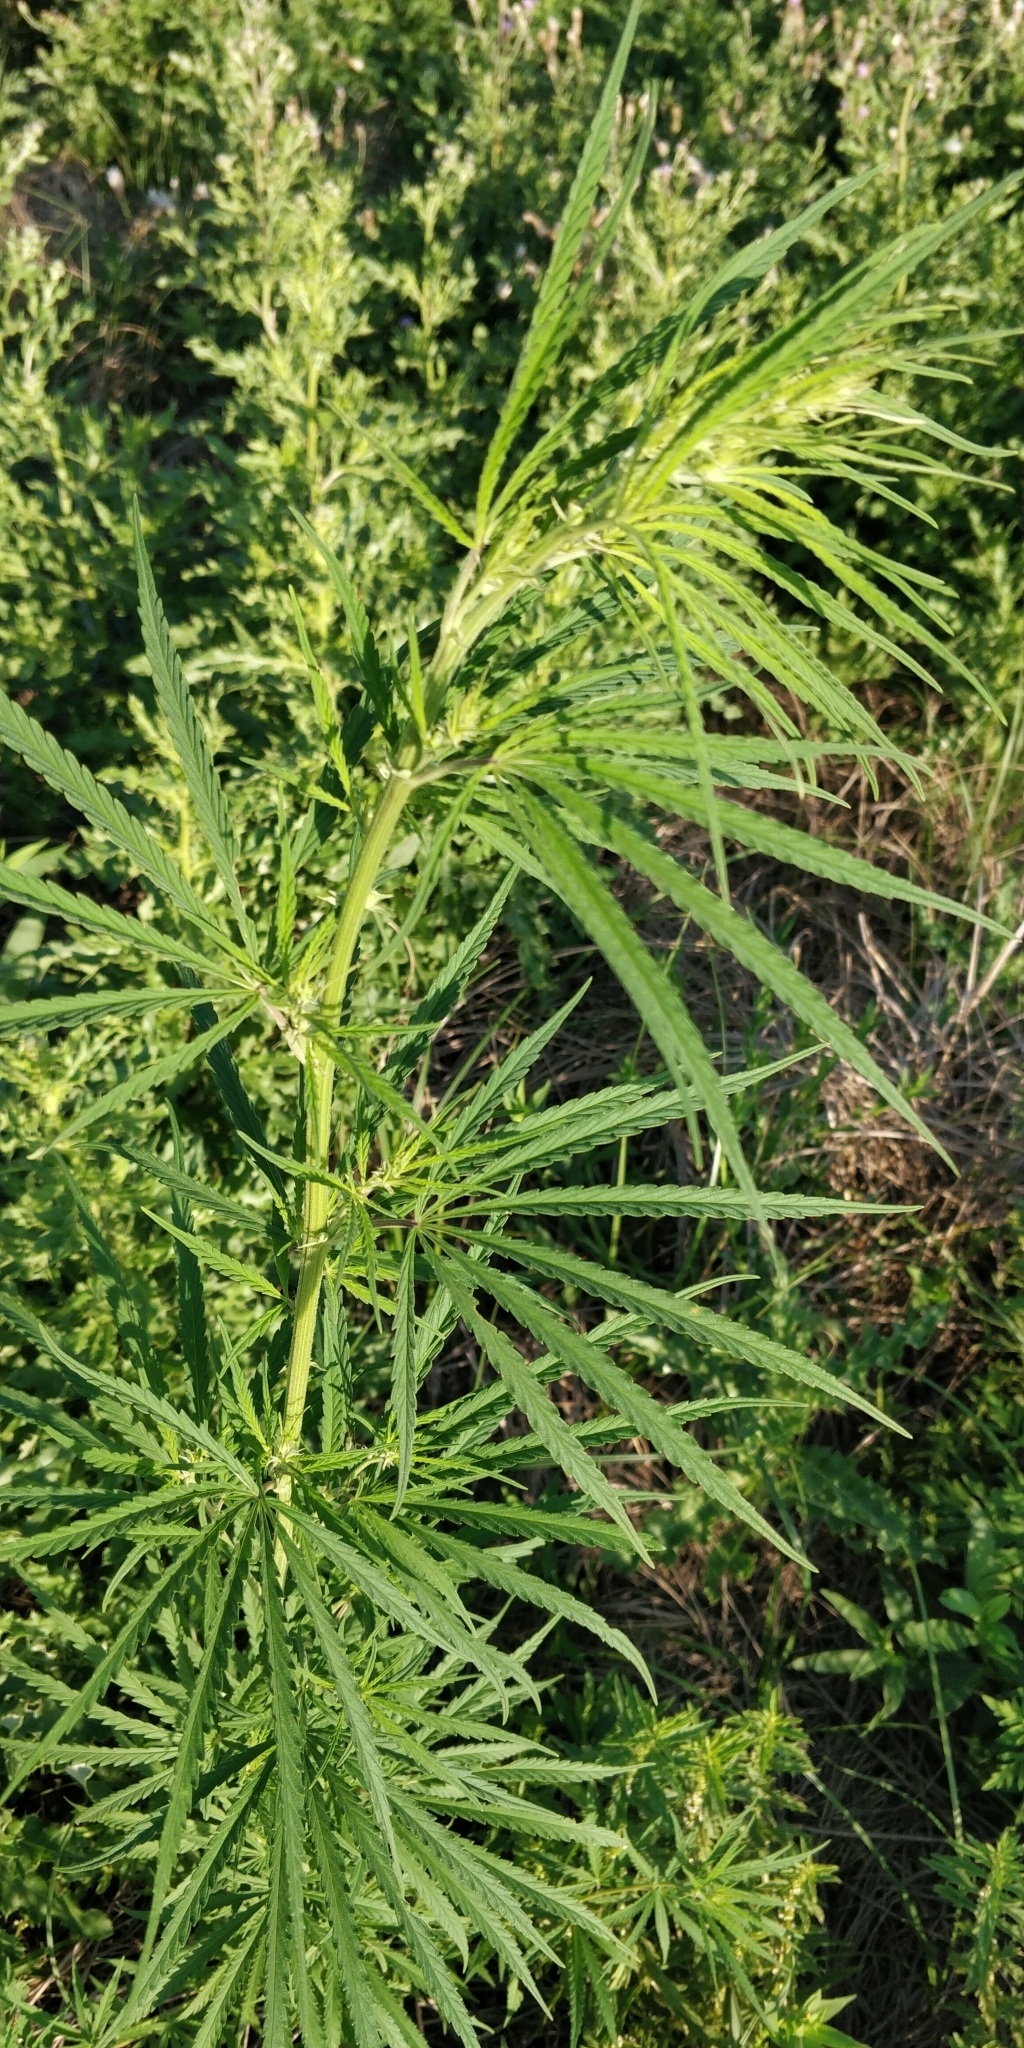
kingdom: Plantae
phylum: Tracheophyta
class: Magnoliopsida
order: Rosales
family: Cannabaceae
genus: Cannabis
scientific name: Cannabis sativa
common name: Hemp
